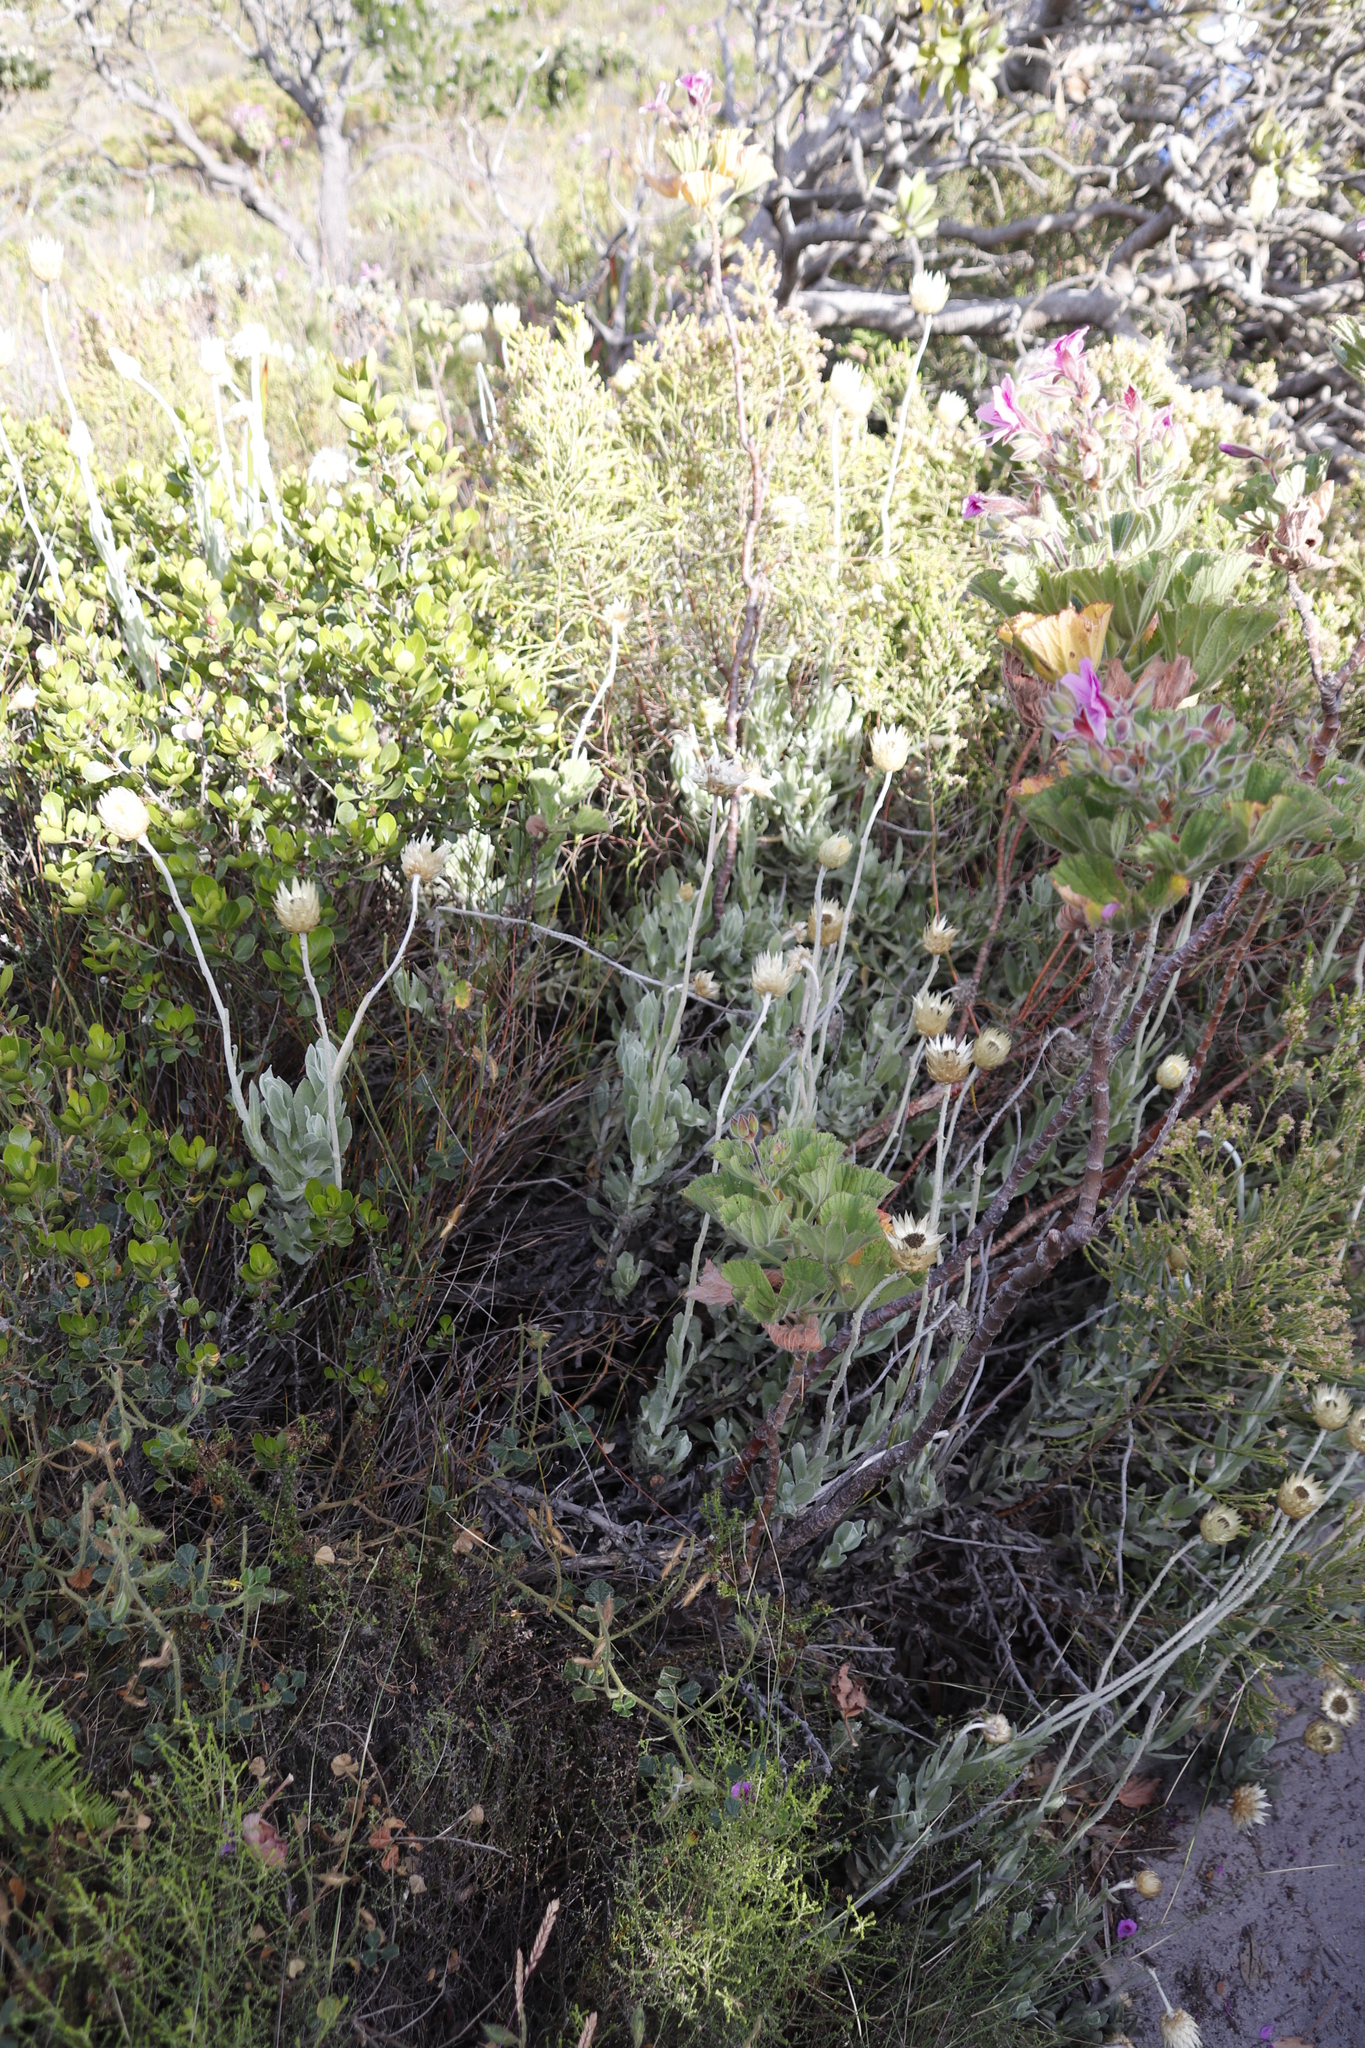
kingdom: Plantae
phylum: Tracheophyta
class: Magnoliopsida
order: Asterales
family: Asteraceae
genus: Syncarpha
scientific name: Syncarpha speciosissima
